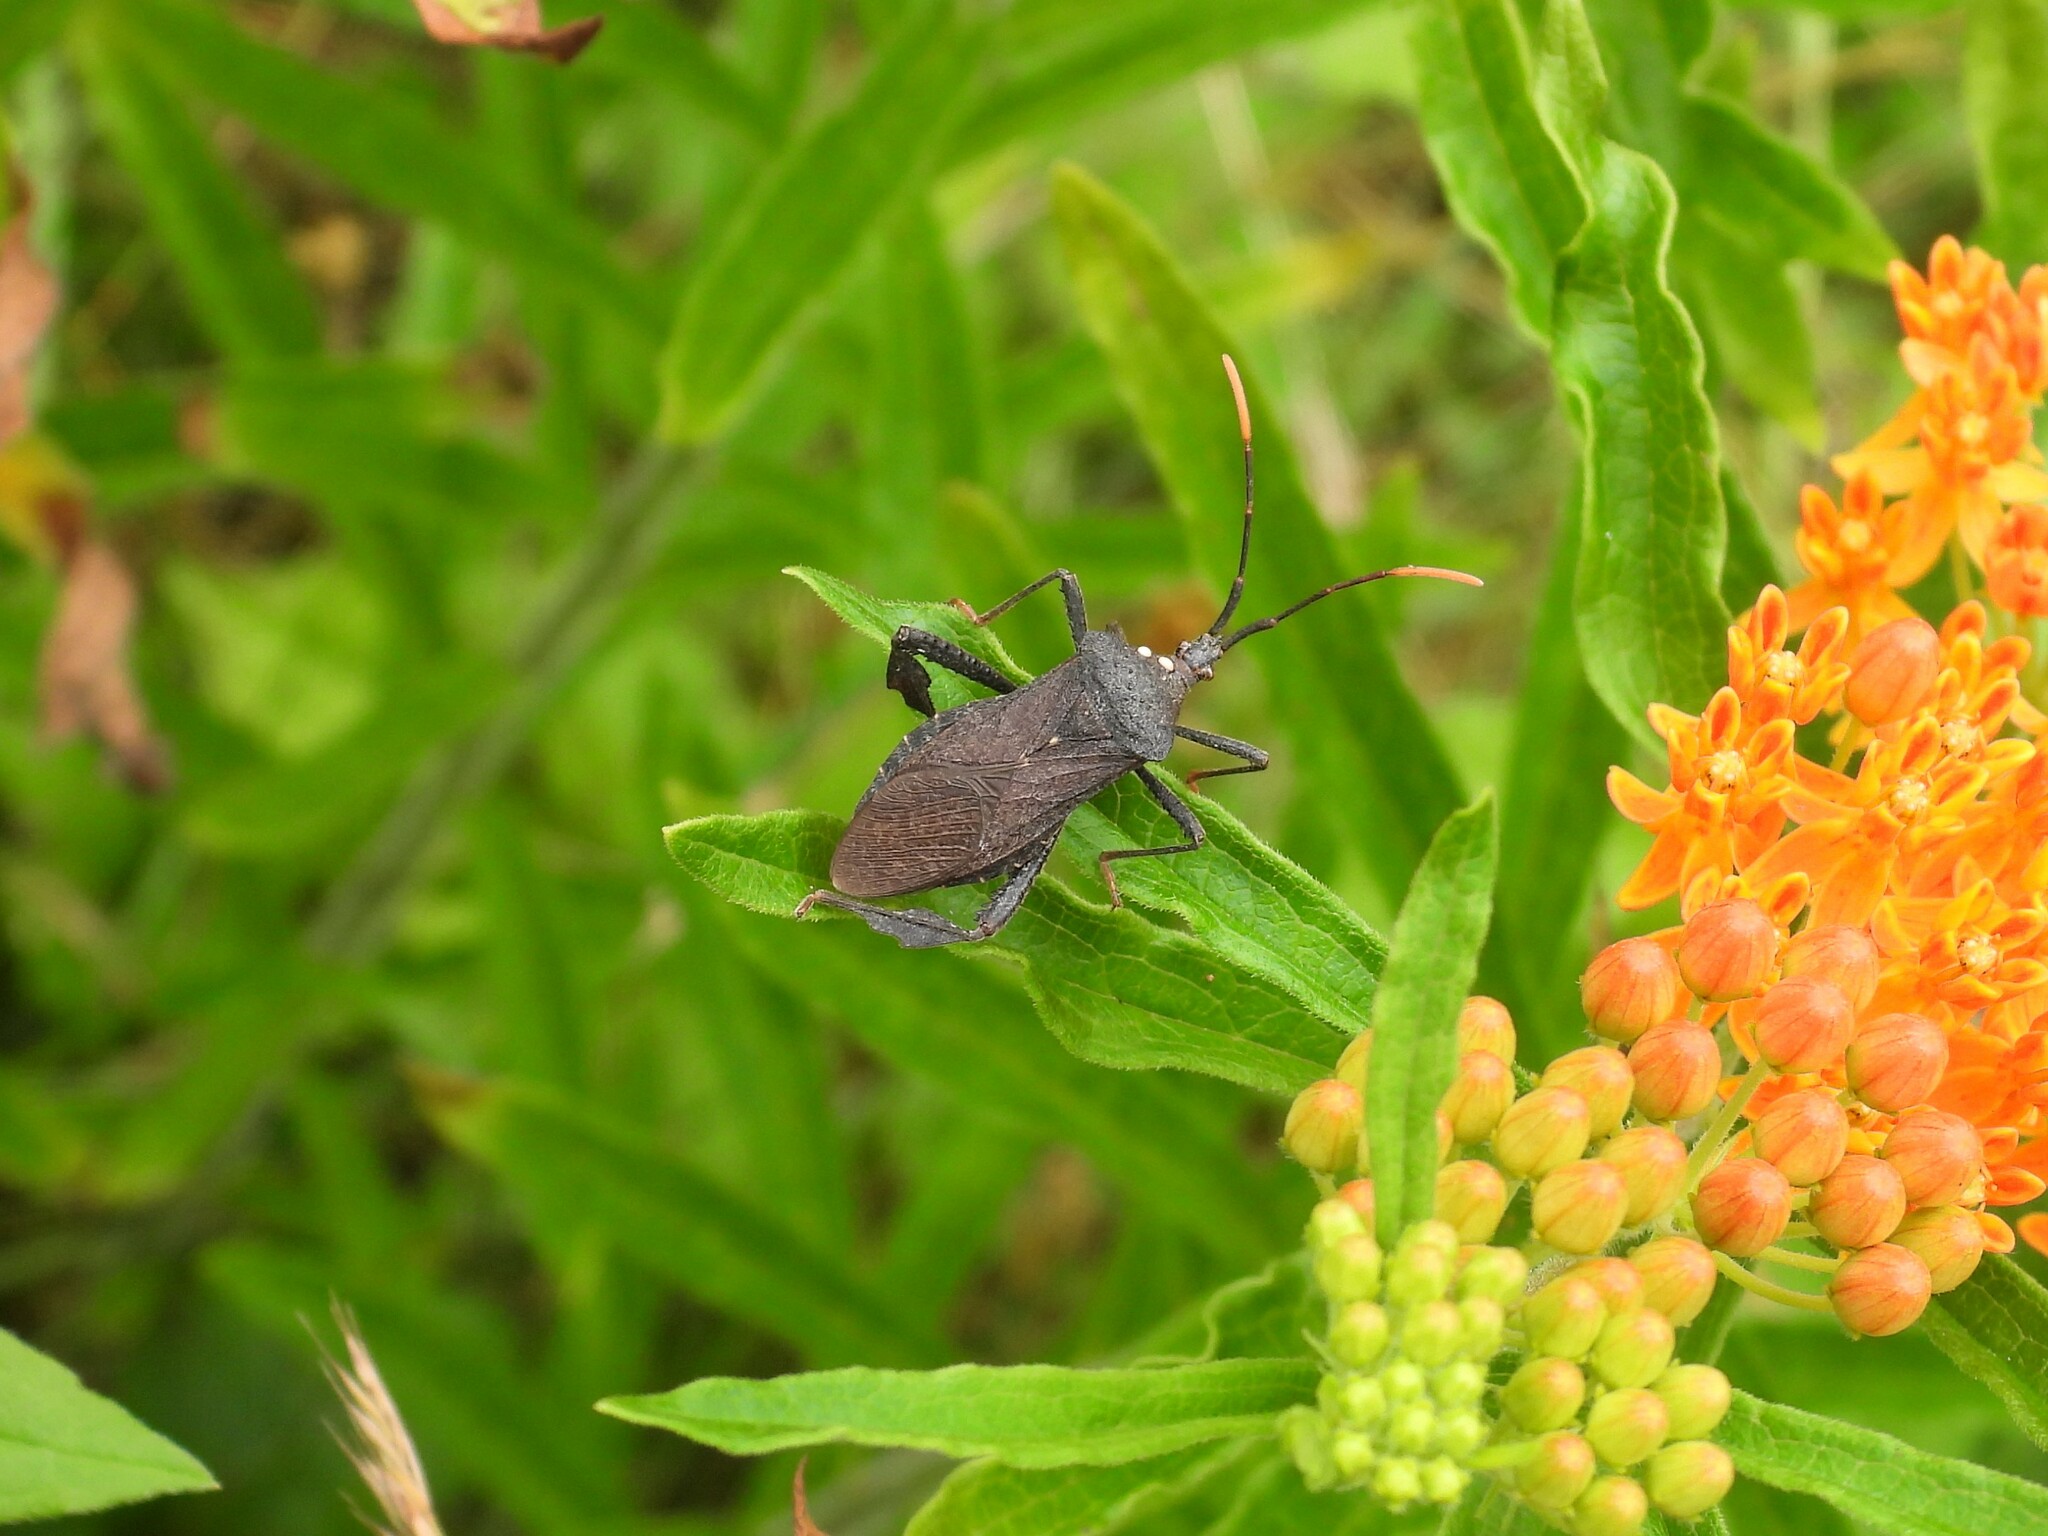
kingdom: Animalia
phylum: Arthropoda
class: Insecta
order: Hemiptera
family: Coreidae
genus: Acanthocephala
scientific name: Acanthocephala terminalis
